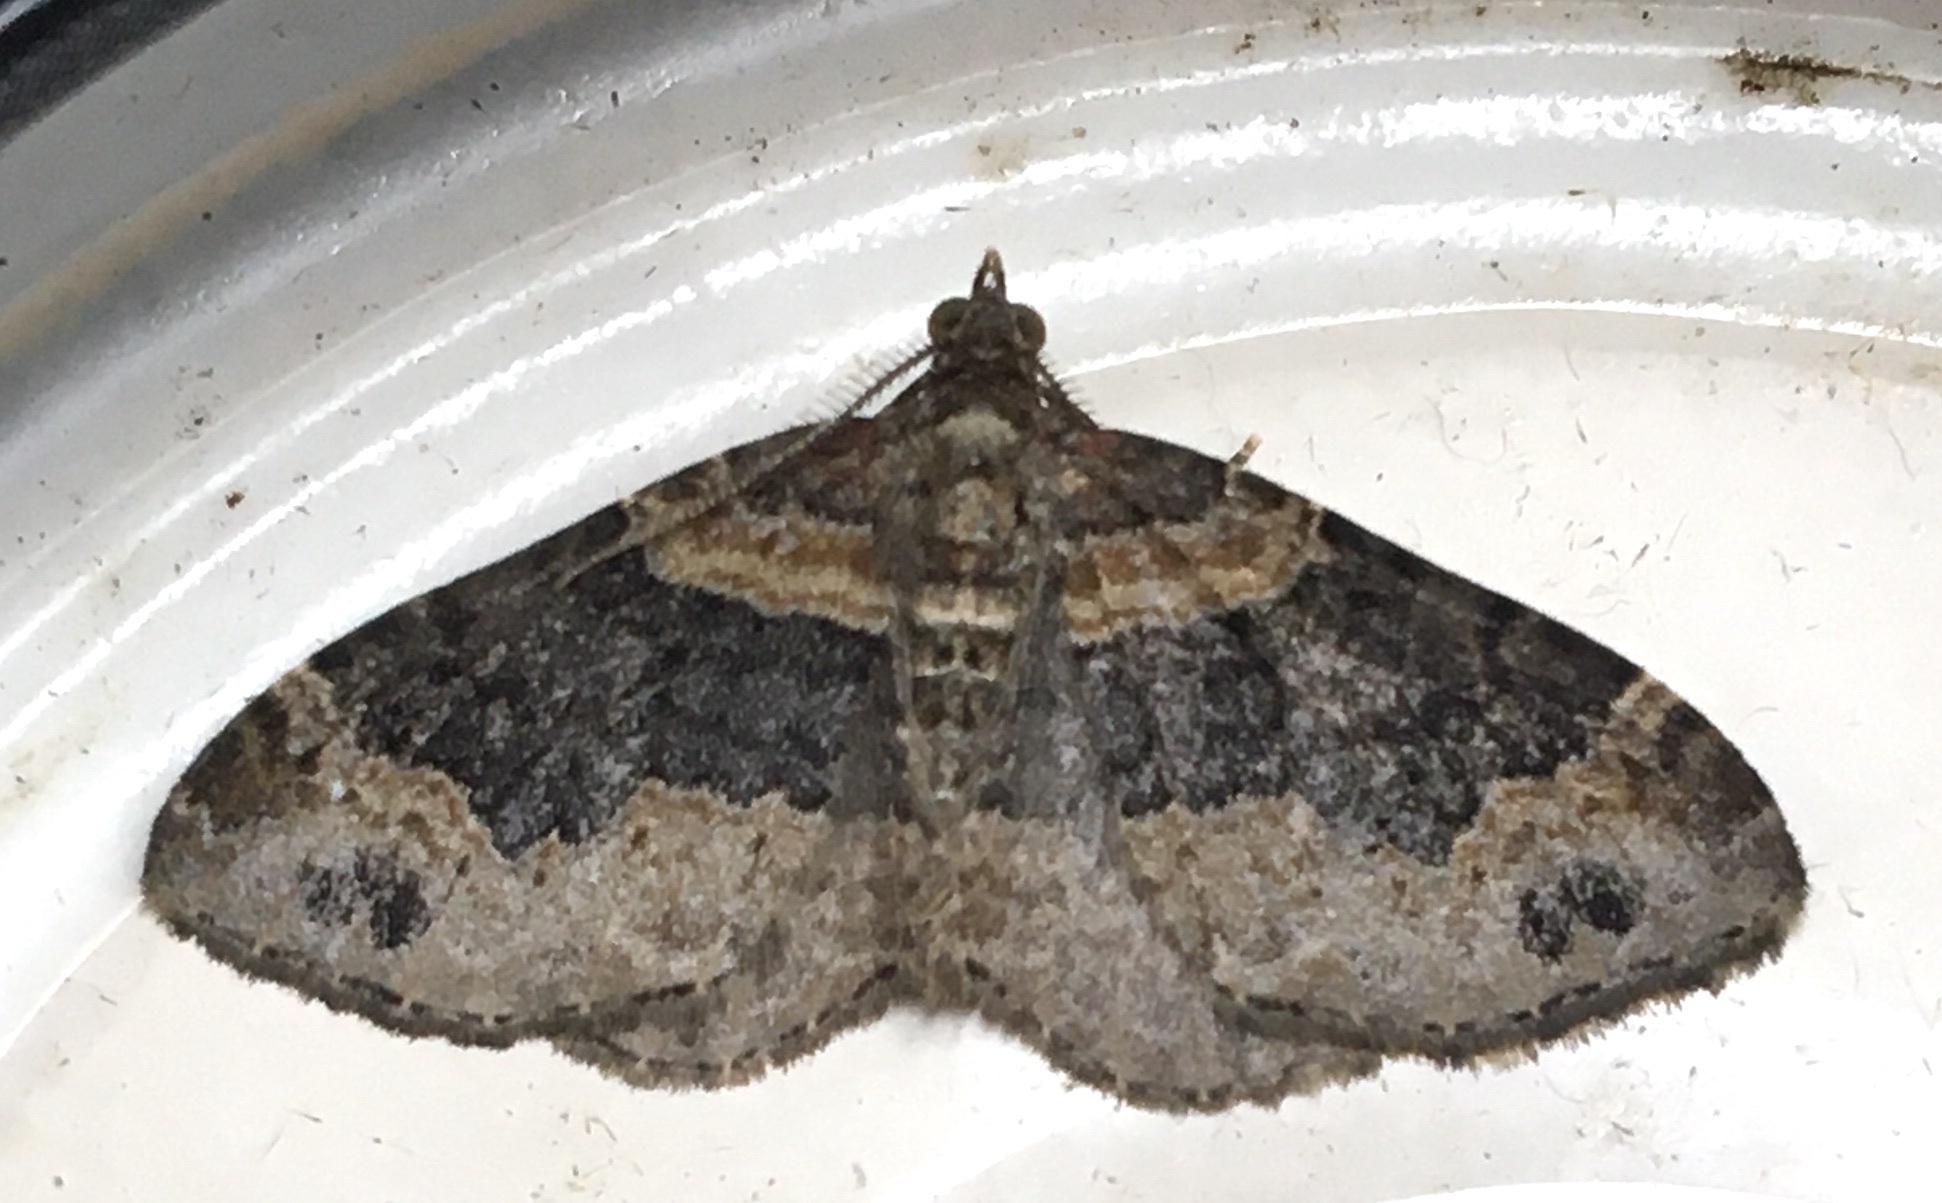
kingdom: Animalia
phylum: Arthropoda
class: Insecta
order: Lepidoptera
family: Geometridae
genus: Xanthorhoe
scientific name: Xanthorhoe ferrugata
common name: Dark-barred twin-spot carpet
